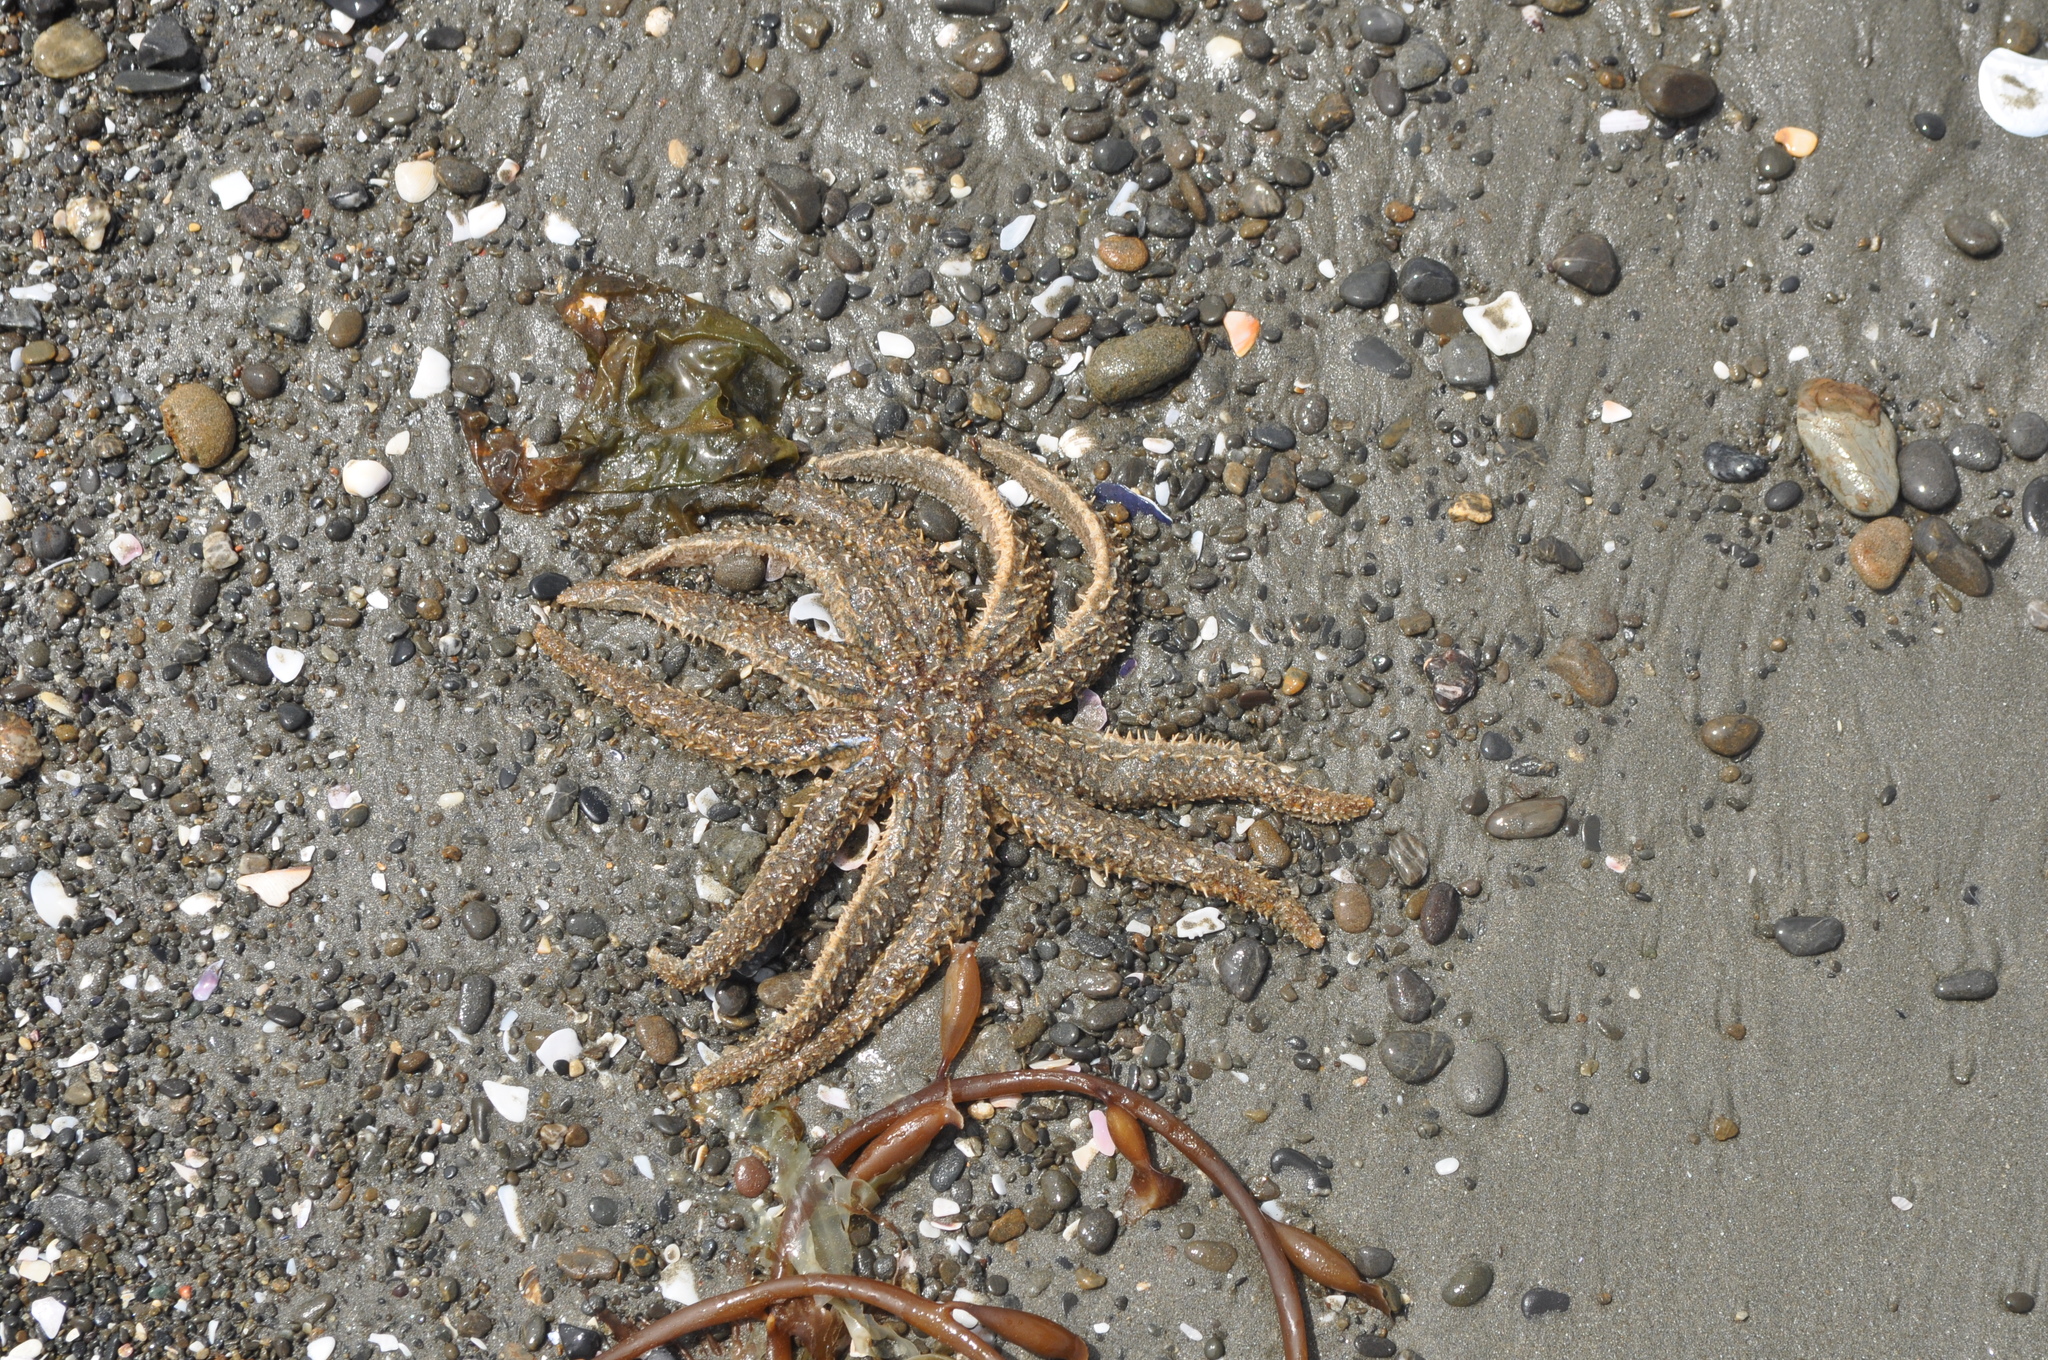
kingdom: Animalia
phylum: Echinodermata
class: Asteroidea
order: Forcipulatida
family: Asteriidae
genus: Coscinasterias
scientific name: Coscinasterias muricata
